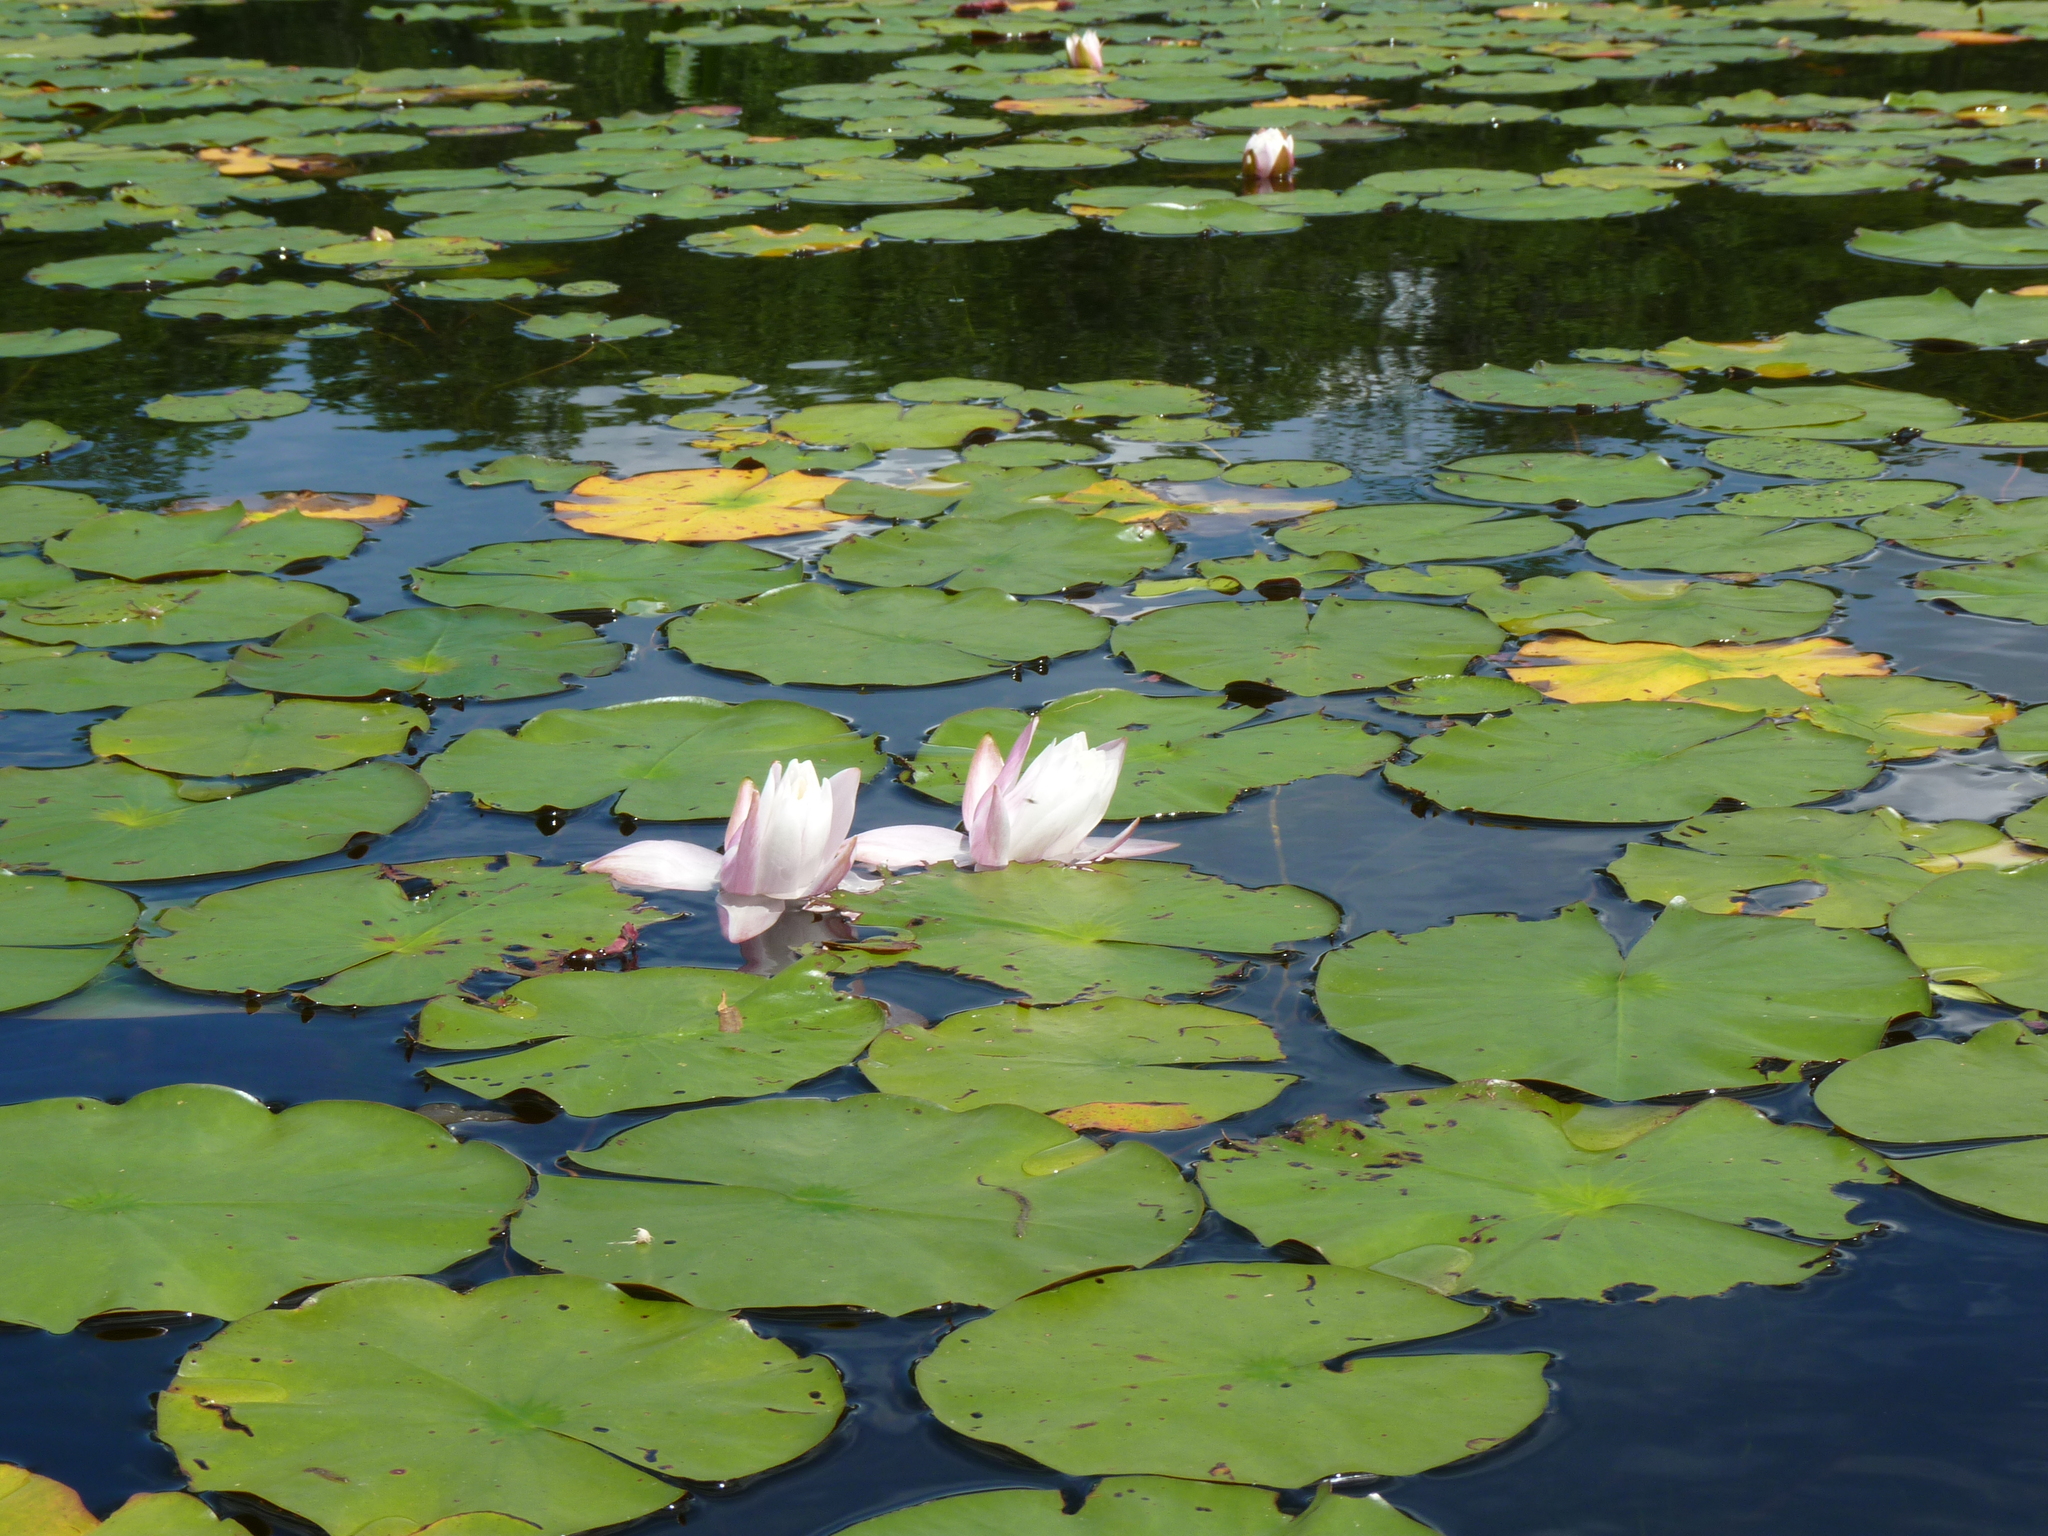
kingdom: Plantae
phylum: Tracheophyta
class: Magnoliopsida
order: Nymphaeales
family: Nymphaeaceae
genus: Nymphaea
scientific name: Nymphaea odorata
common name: Fragrant water-lily
